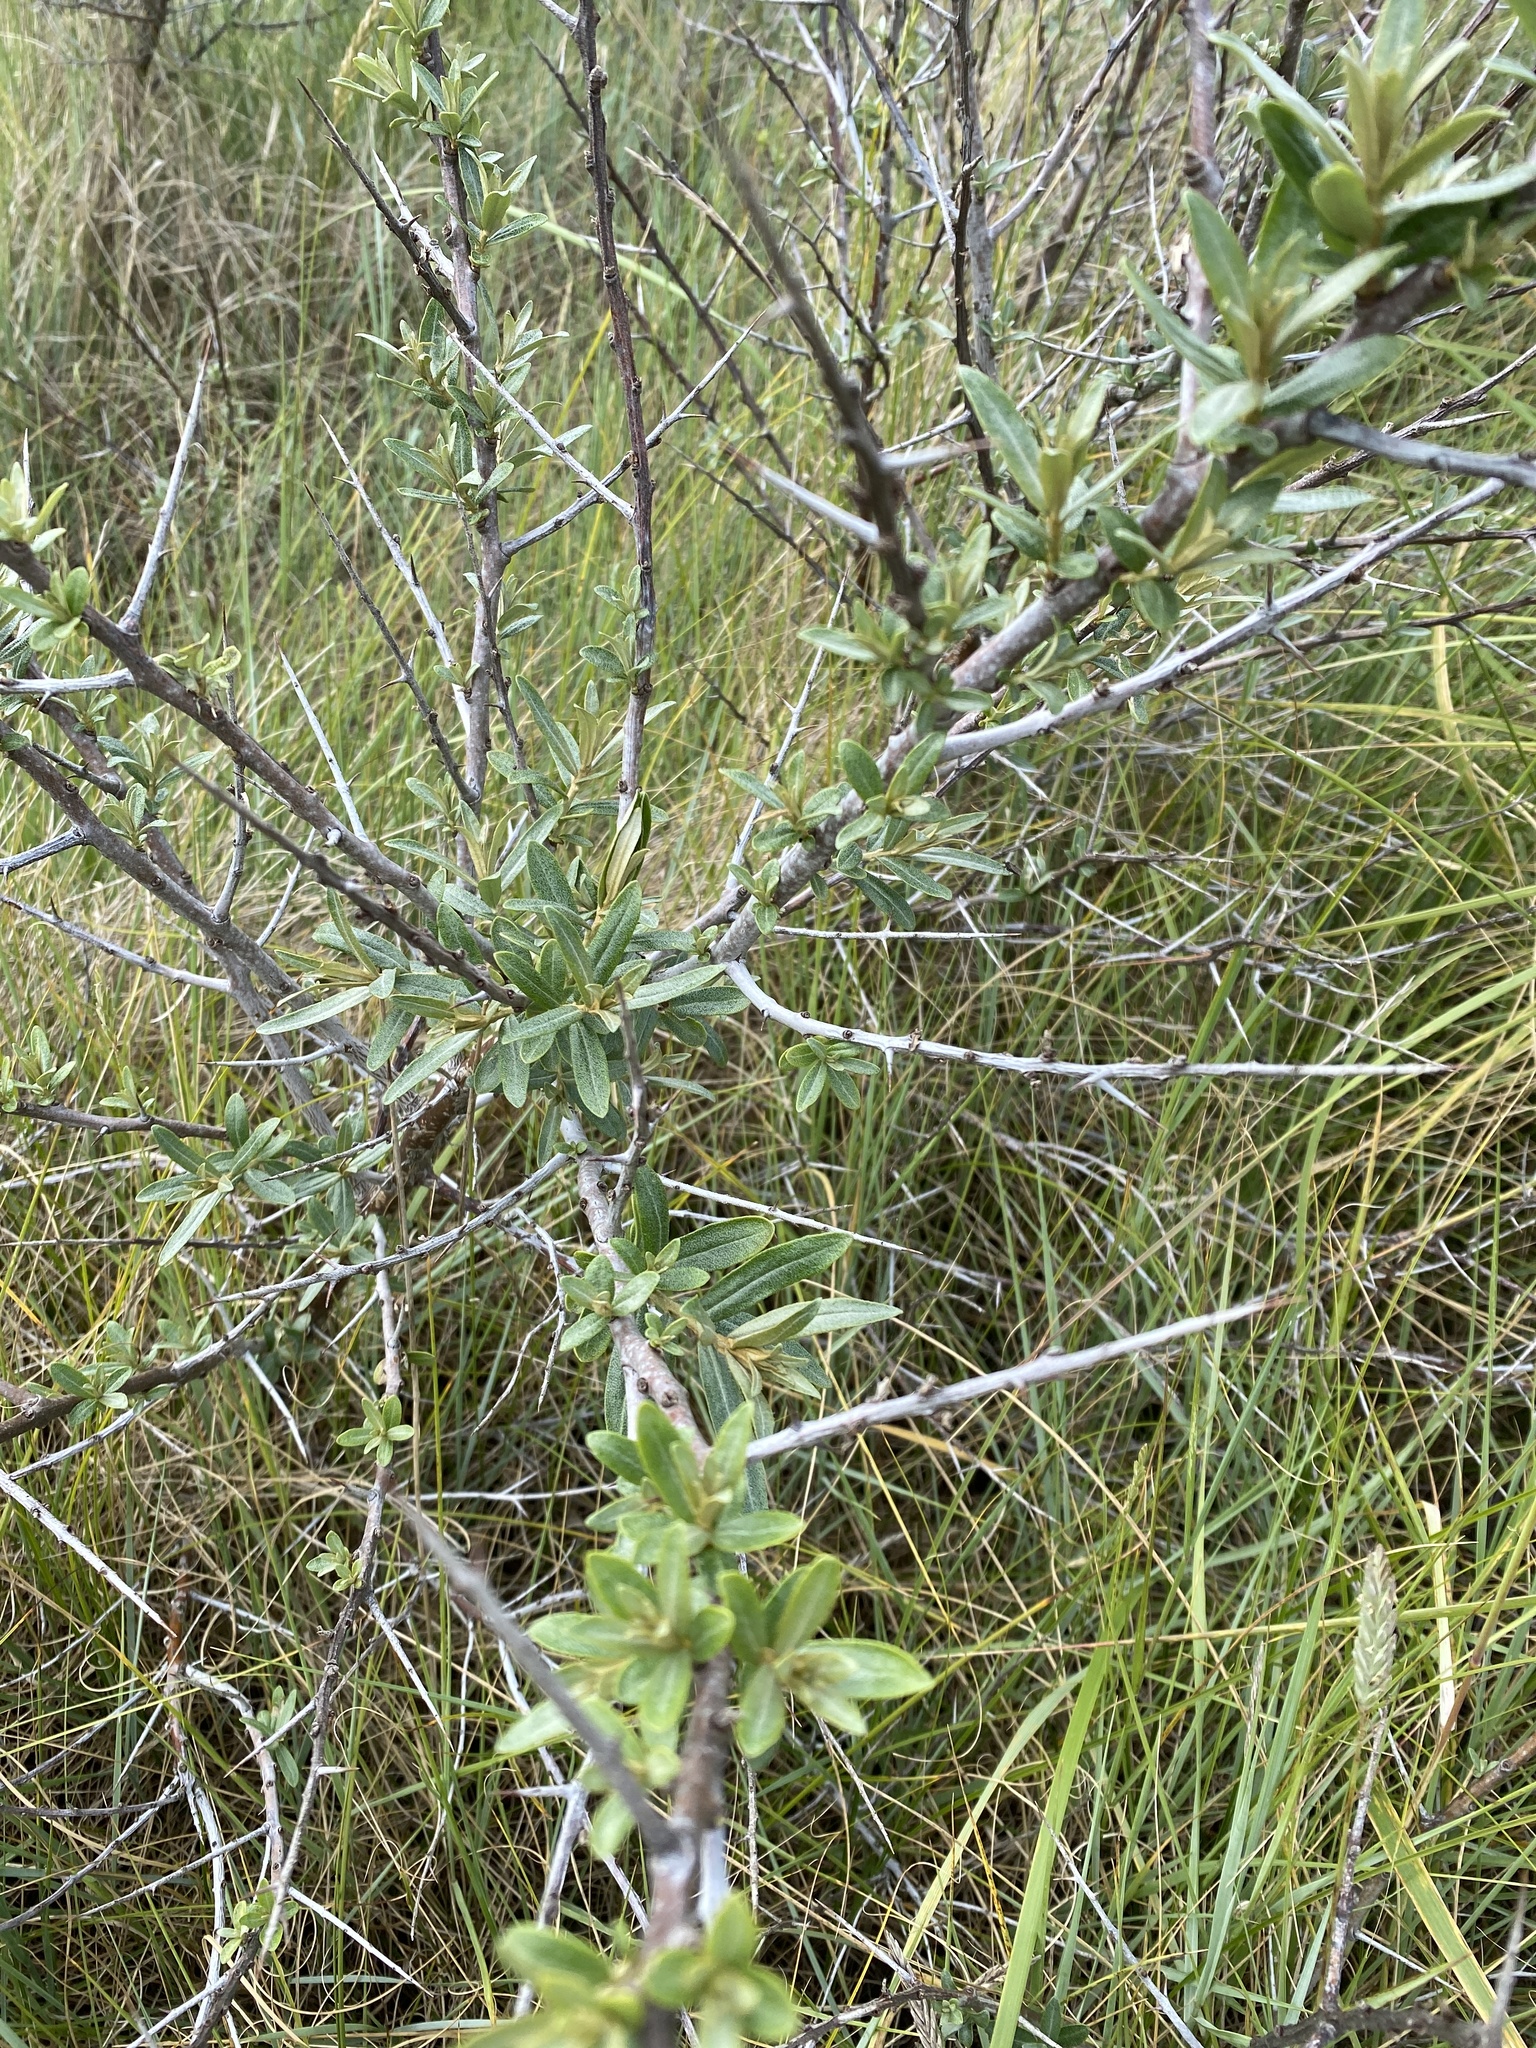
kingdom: Plantae
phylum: Tracheophyta
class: Magnoliopsida
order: Rosales
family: Elaeagnaceae
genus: Hippophae
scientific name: Hippophae rhamnoides
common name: Sea-buckthorn
